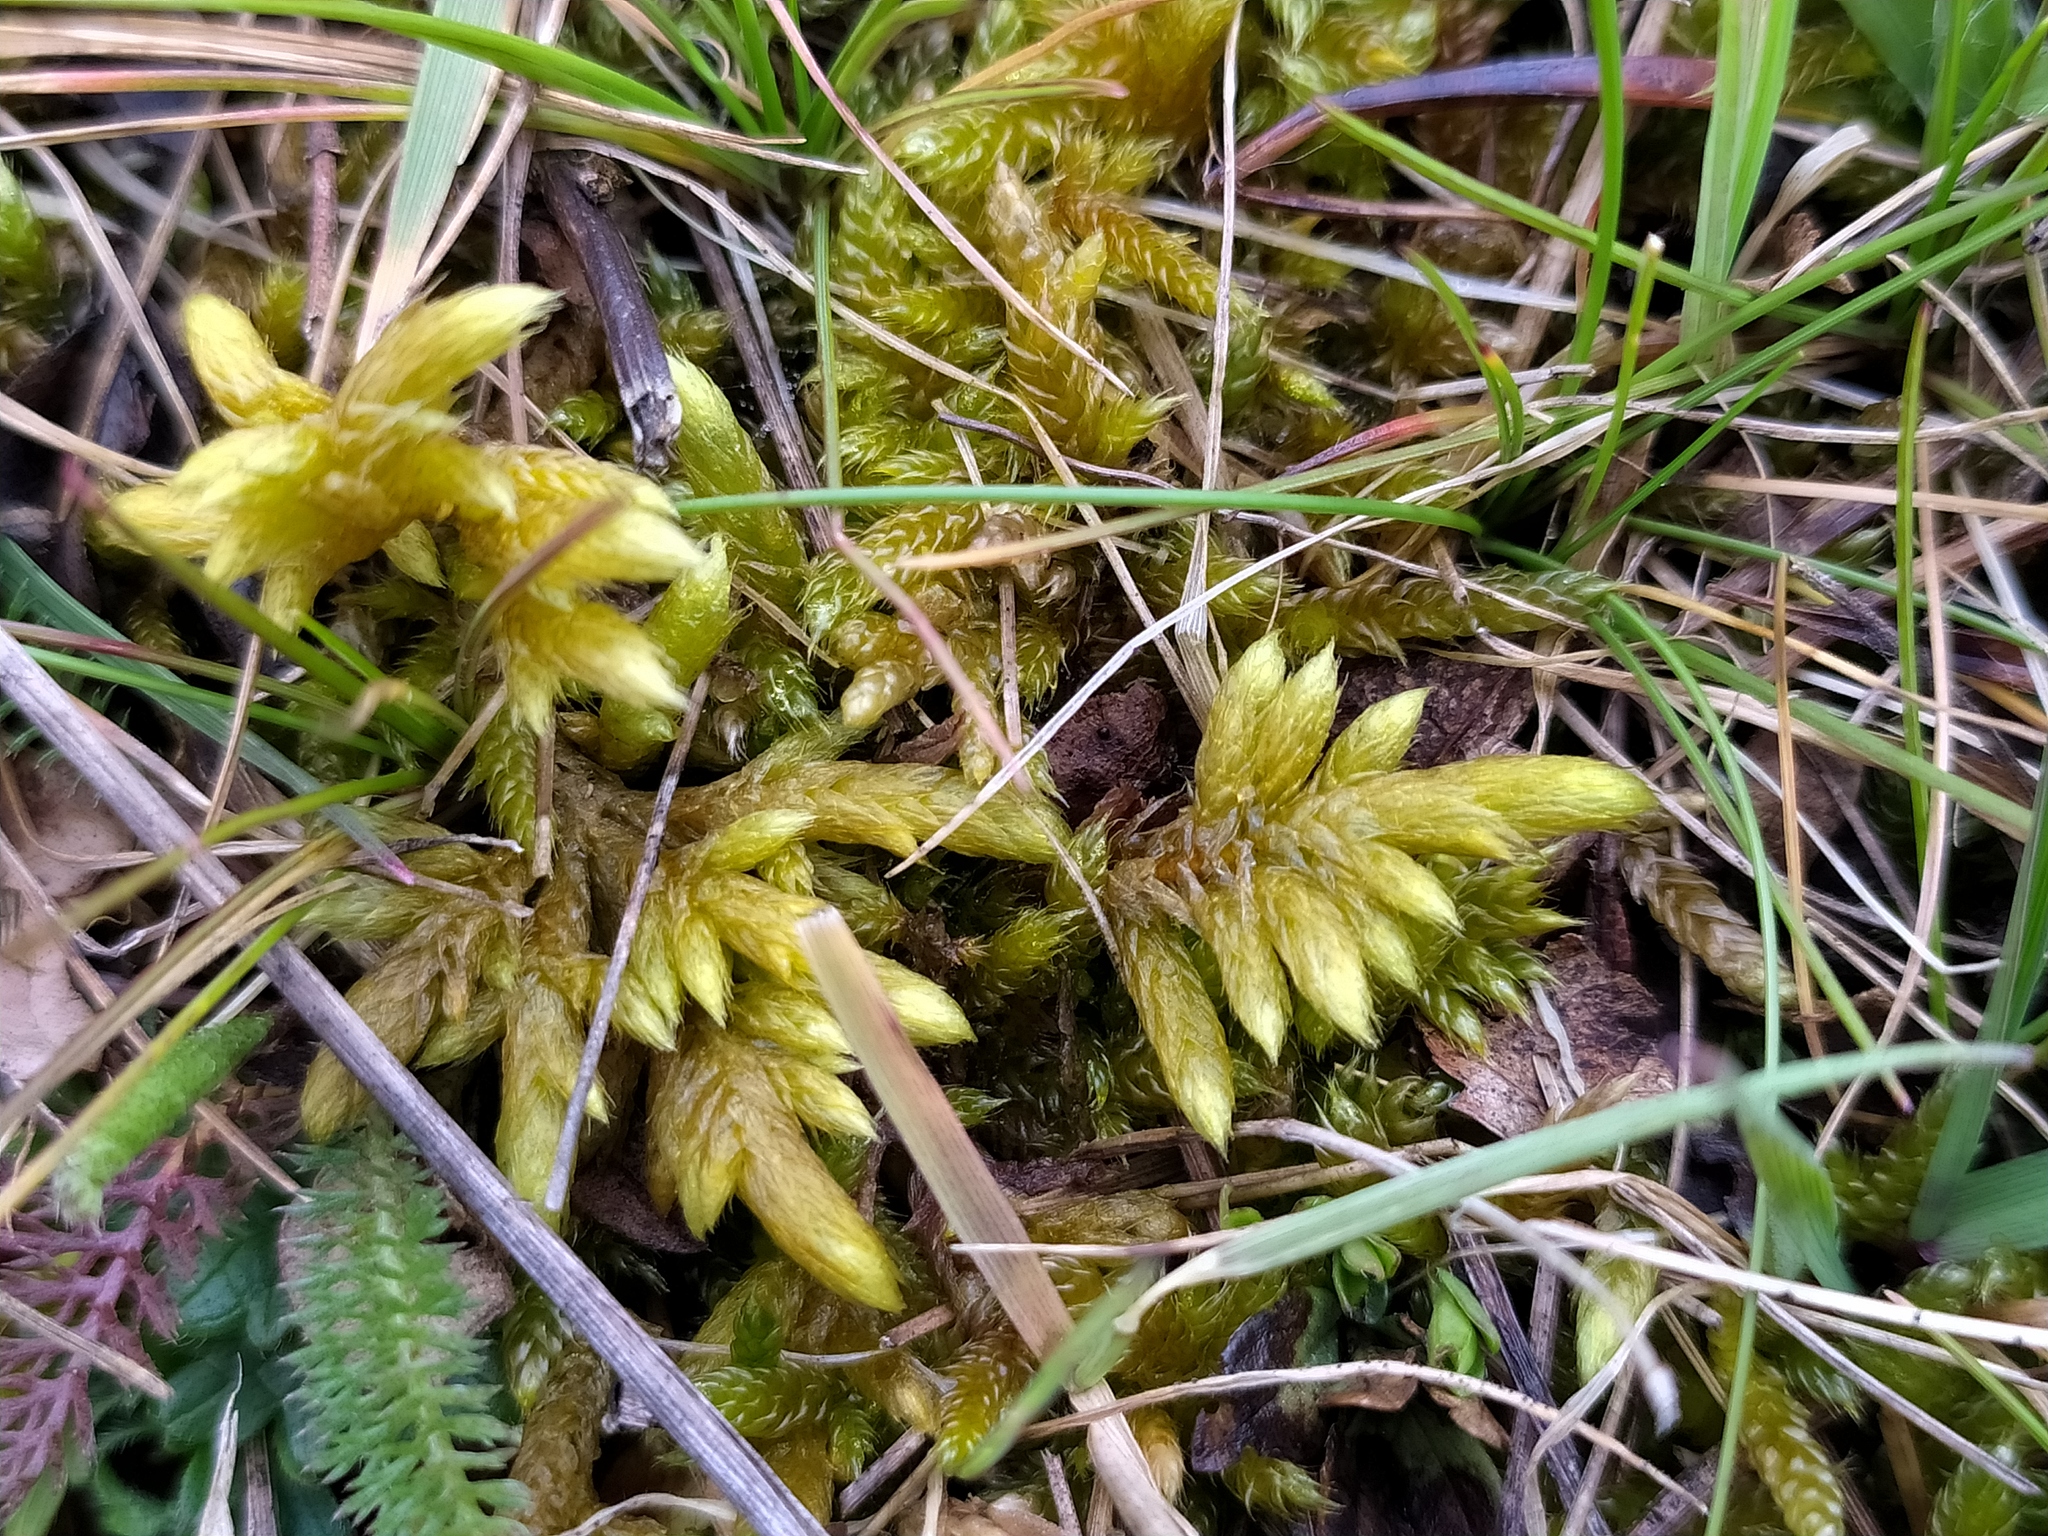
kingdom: Plantae
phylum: Bryophyta
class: Bryopsida
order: Hypnales
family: Rhytidiaceae
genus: Rhytidium
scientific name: Rhytidium rugosum
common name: Wrinkle-leaved moss
